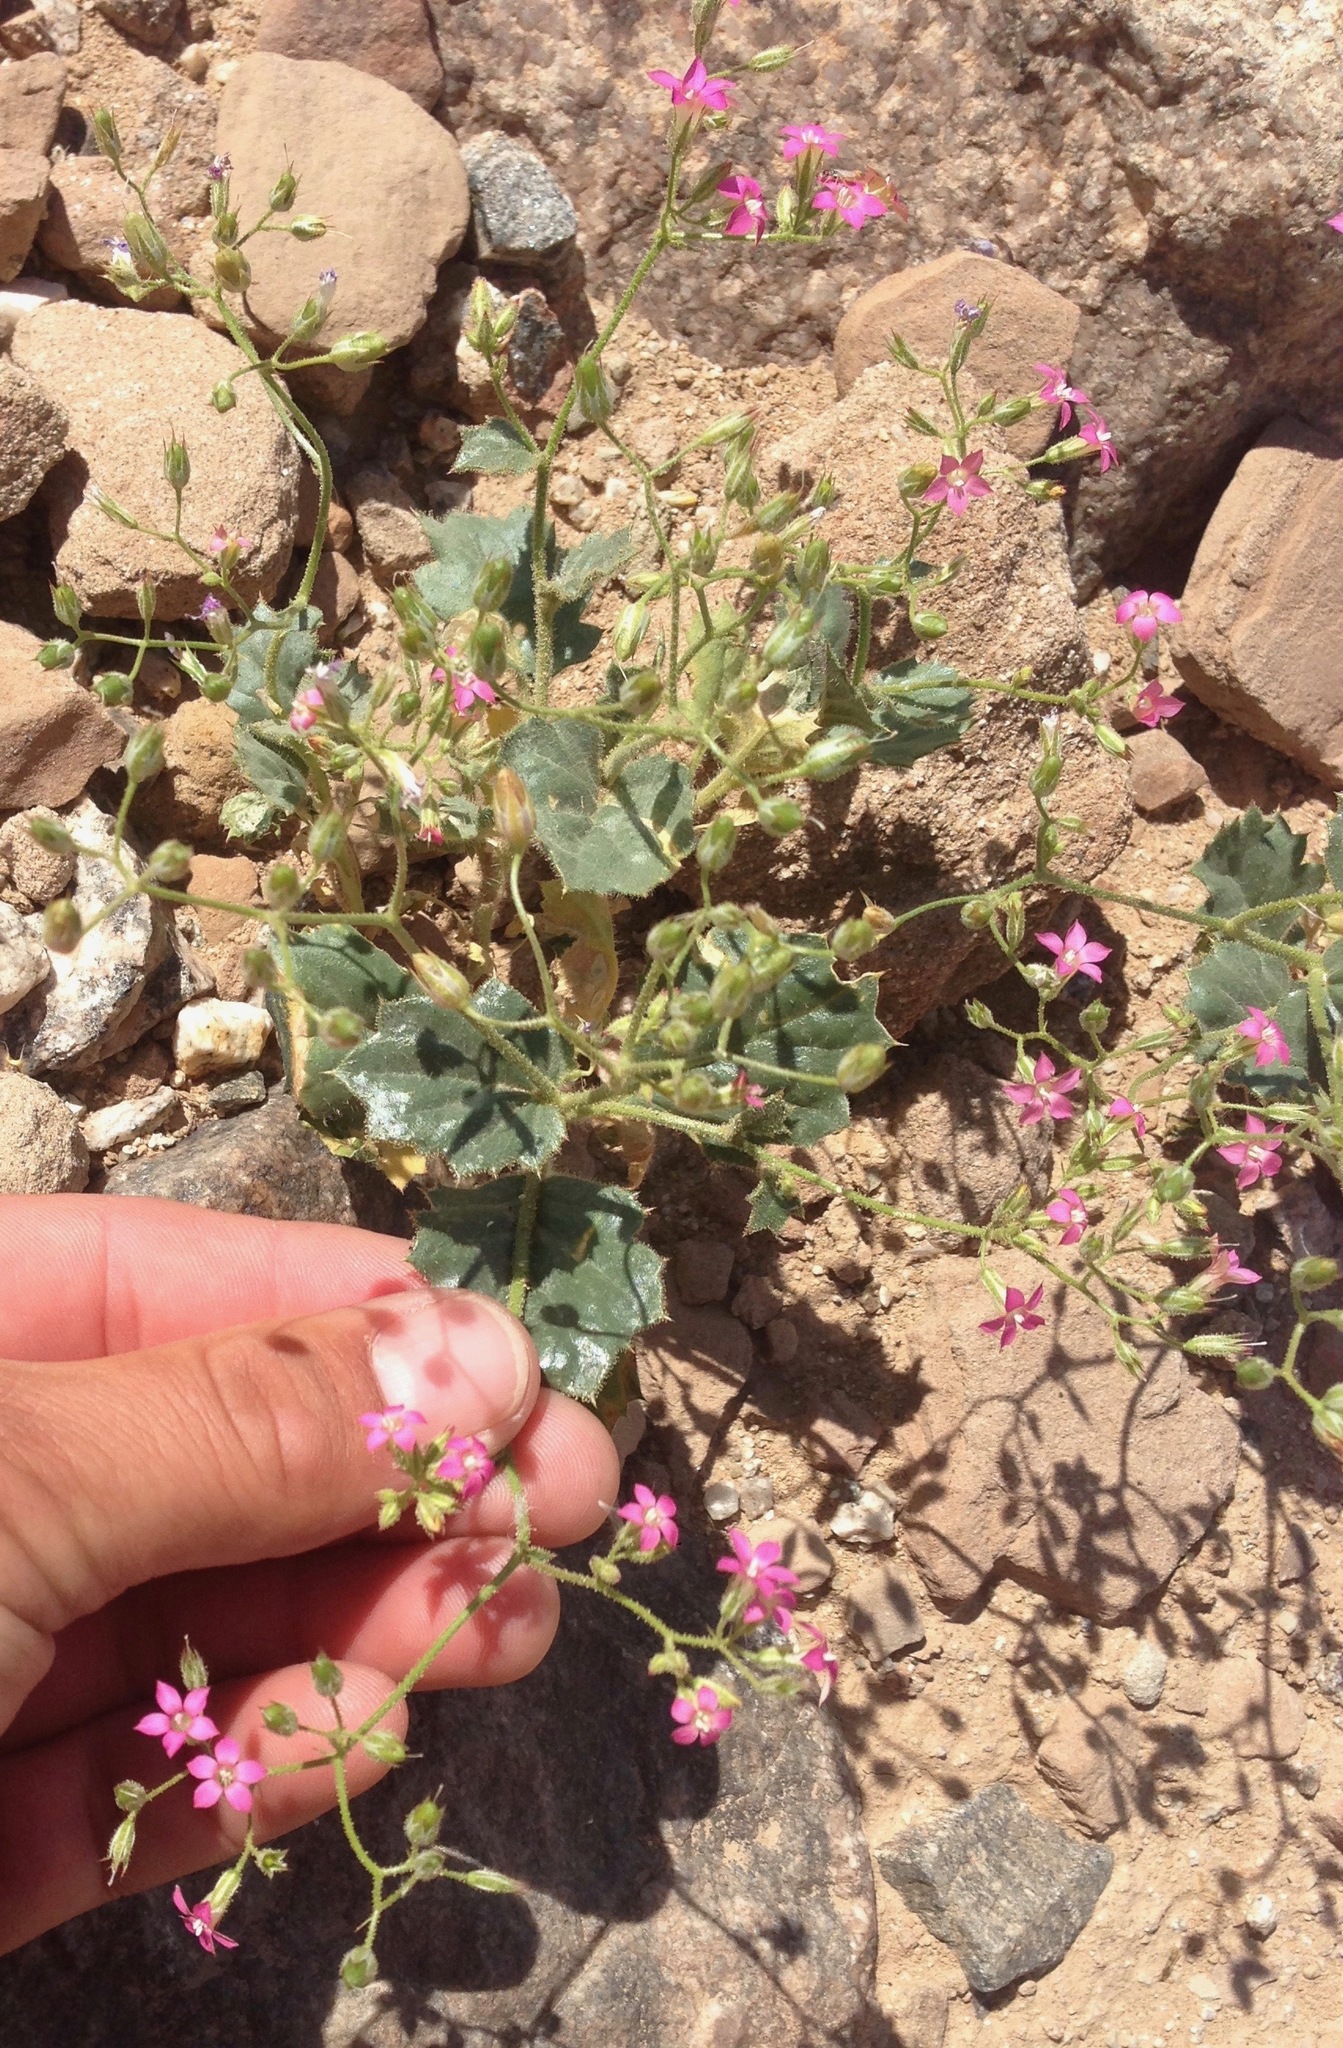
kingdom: Plantae
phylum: Tracheophyta
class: Magnoliopsida
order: Ericales
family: Polemoniaceae
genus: Aliciella
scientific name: Aliciella latifolia
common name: Broad-leaf gilia
